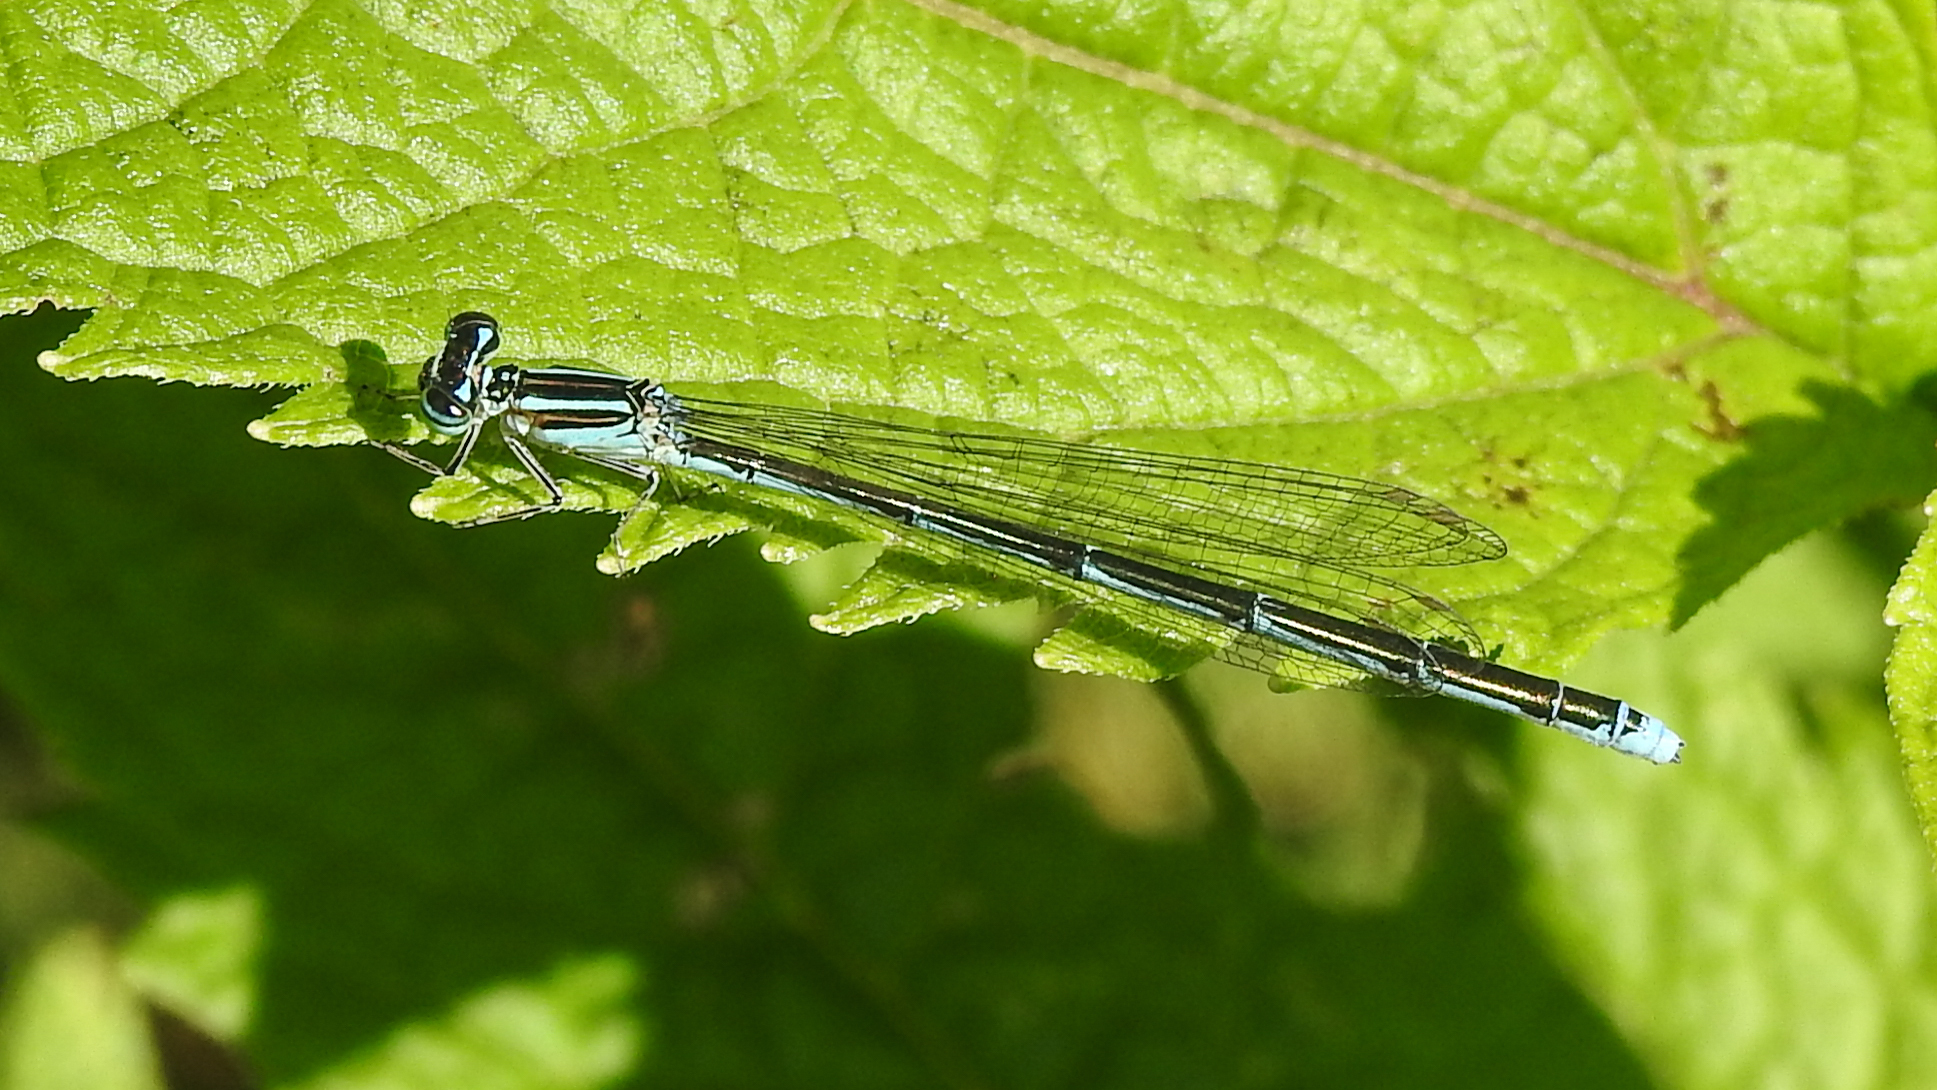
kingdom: Animalia
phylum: Arthropoda
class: Insecta
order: Odonata
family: Coenagrionidae
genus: Enallagma
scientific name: Enallagma exsulans
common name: Stream bluet
